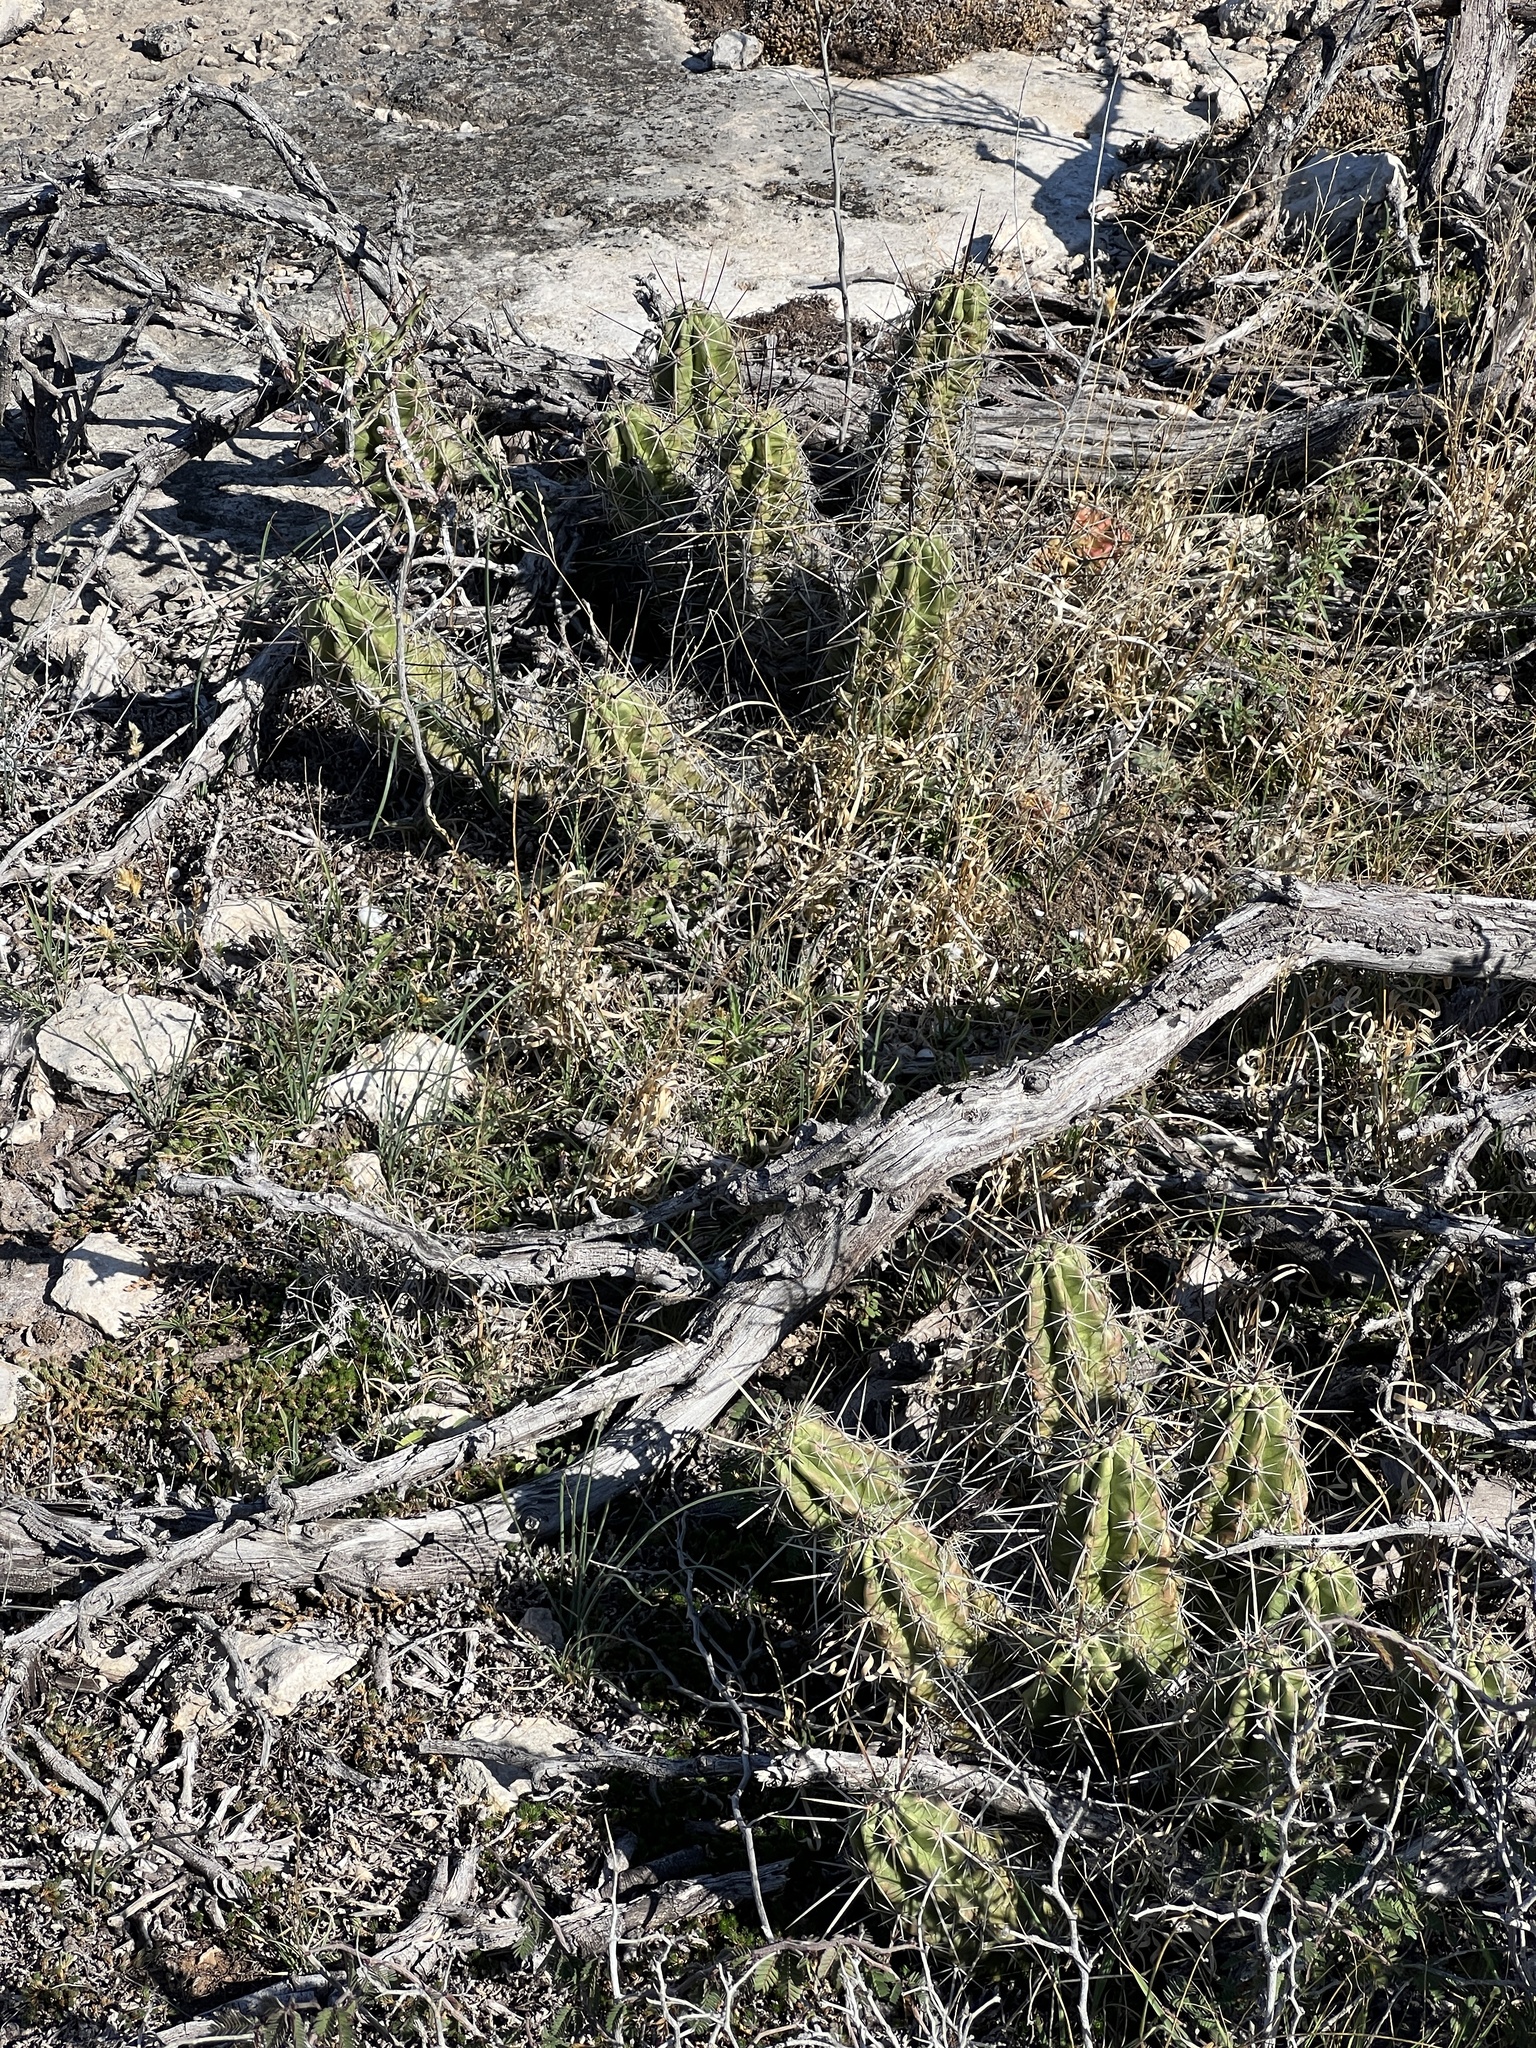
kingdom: Plantae
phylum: Tracheophyta
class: Magnoliopsida
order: Caryophyllales
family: Cactaceae
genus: Echinocereus
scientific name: Echinocereus enneacanthus
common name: Pitaya
